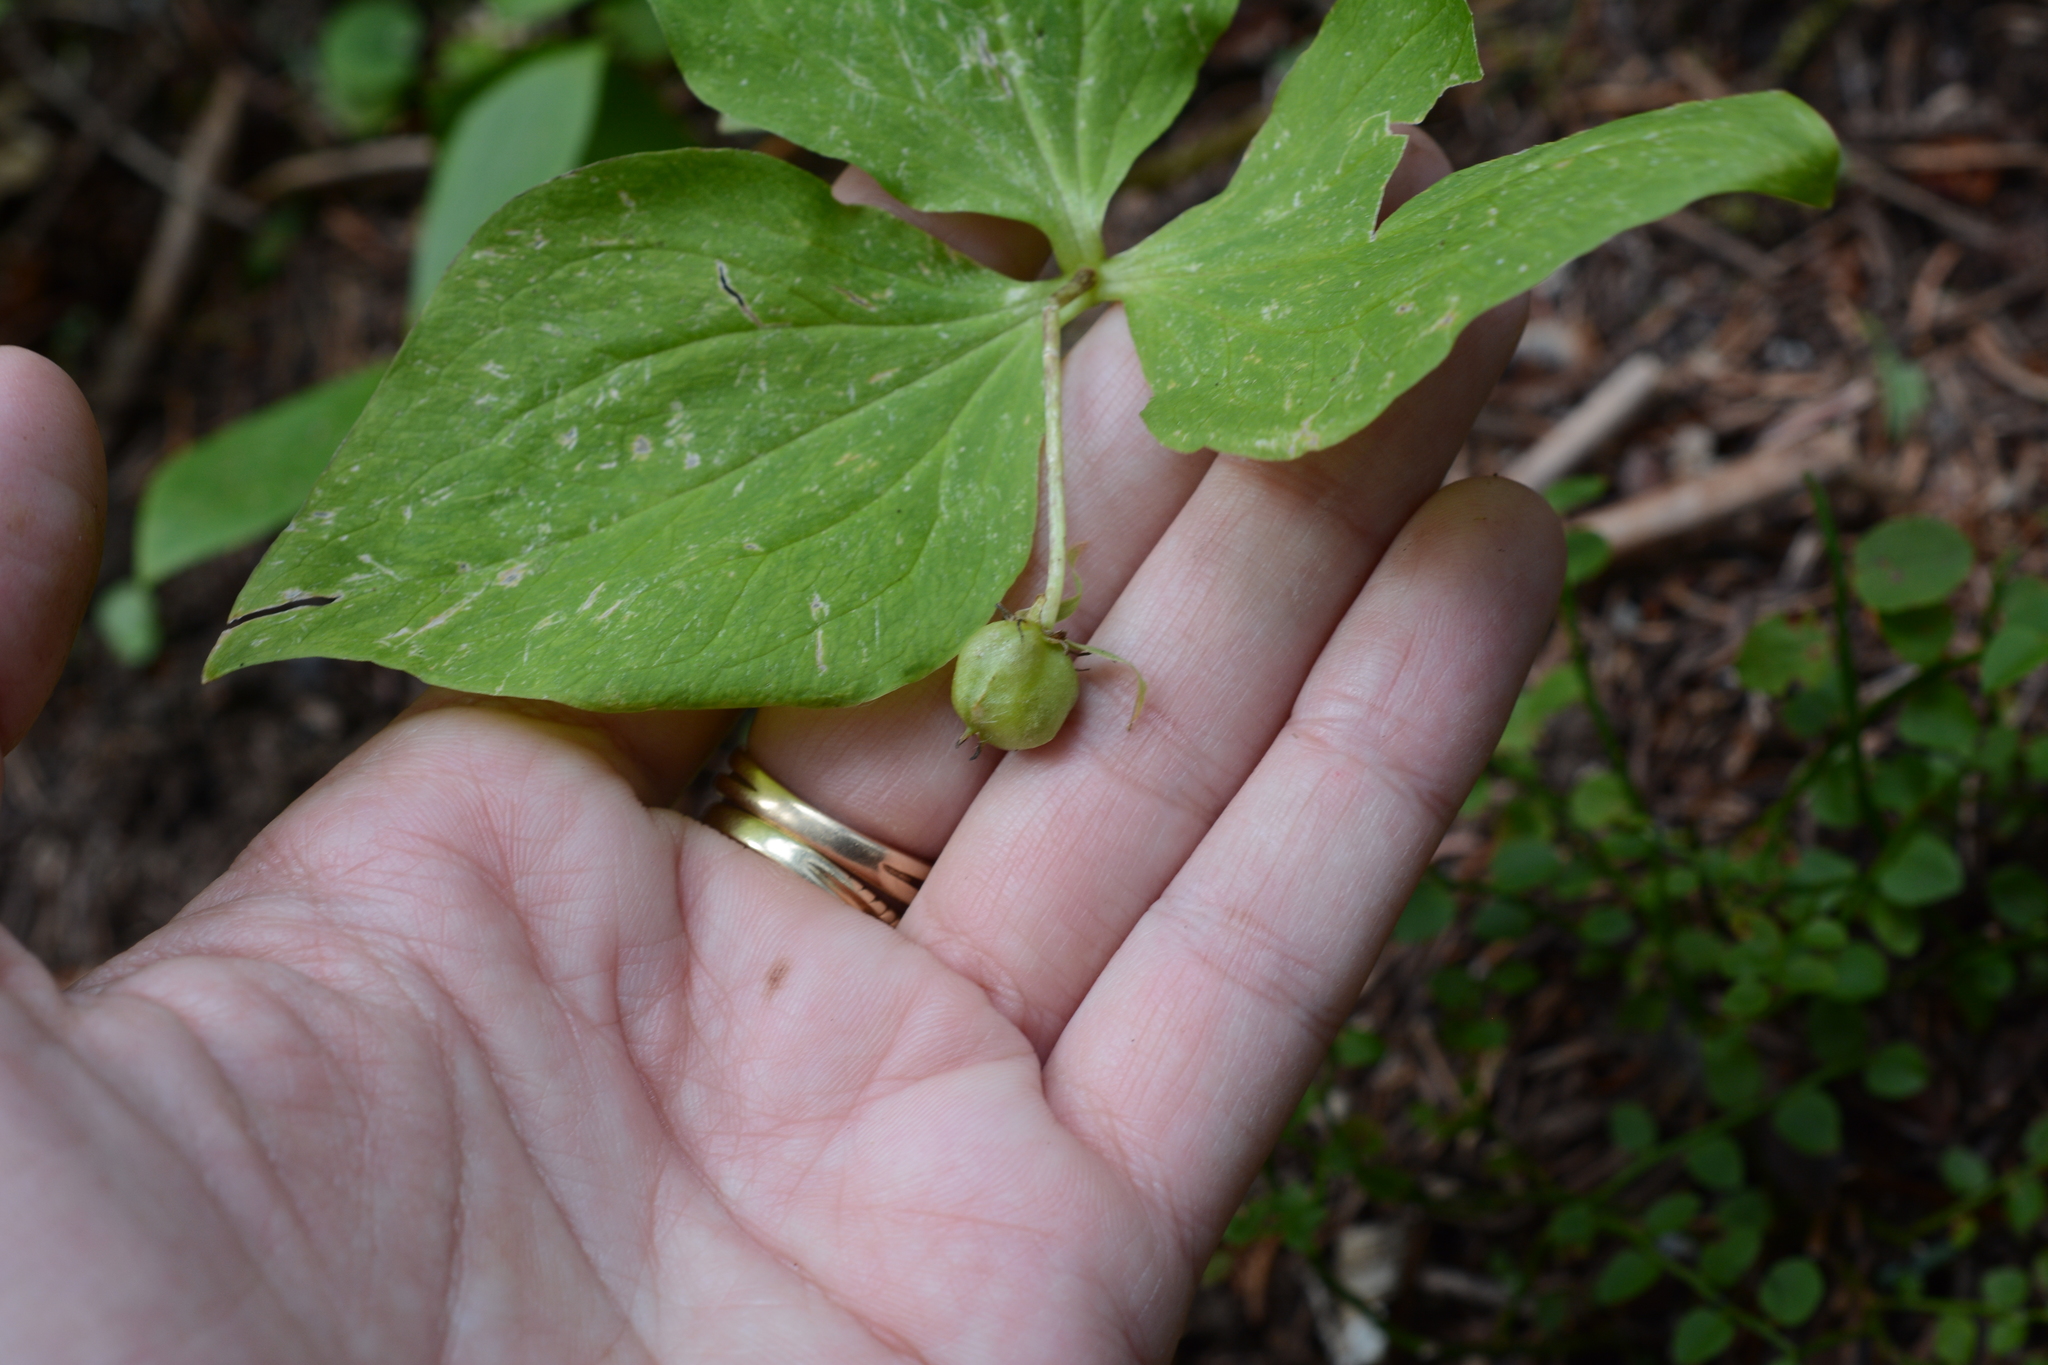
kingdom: Plantae
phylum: Tracheophyta
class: Liliopsida
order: Liliales
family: Melanthiaceae
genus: Trillium
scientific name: Trillium ovatum
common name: Pacific trillium
